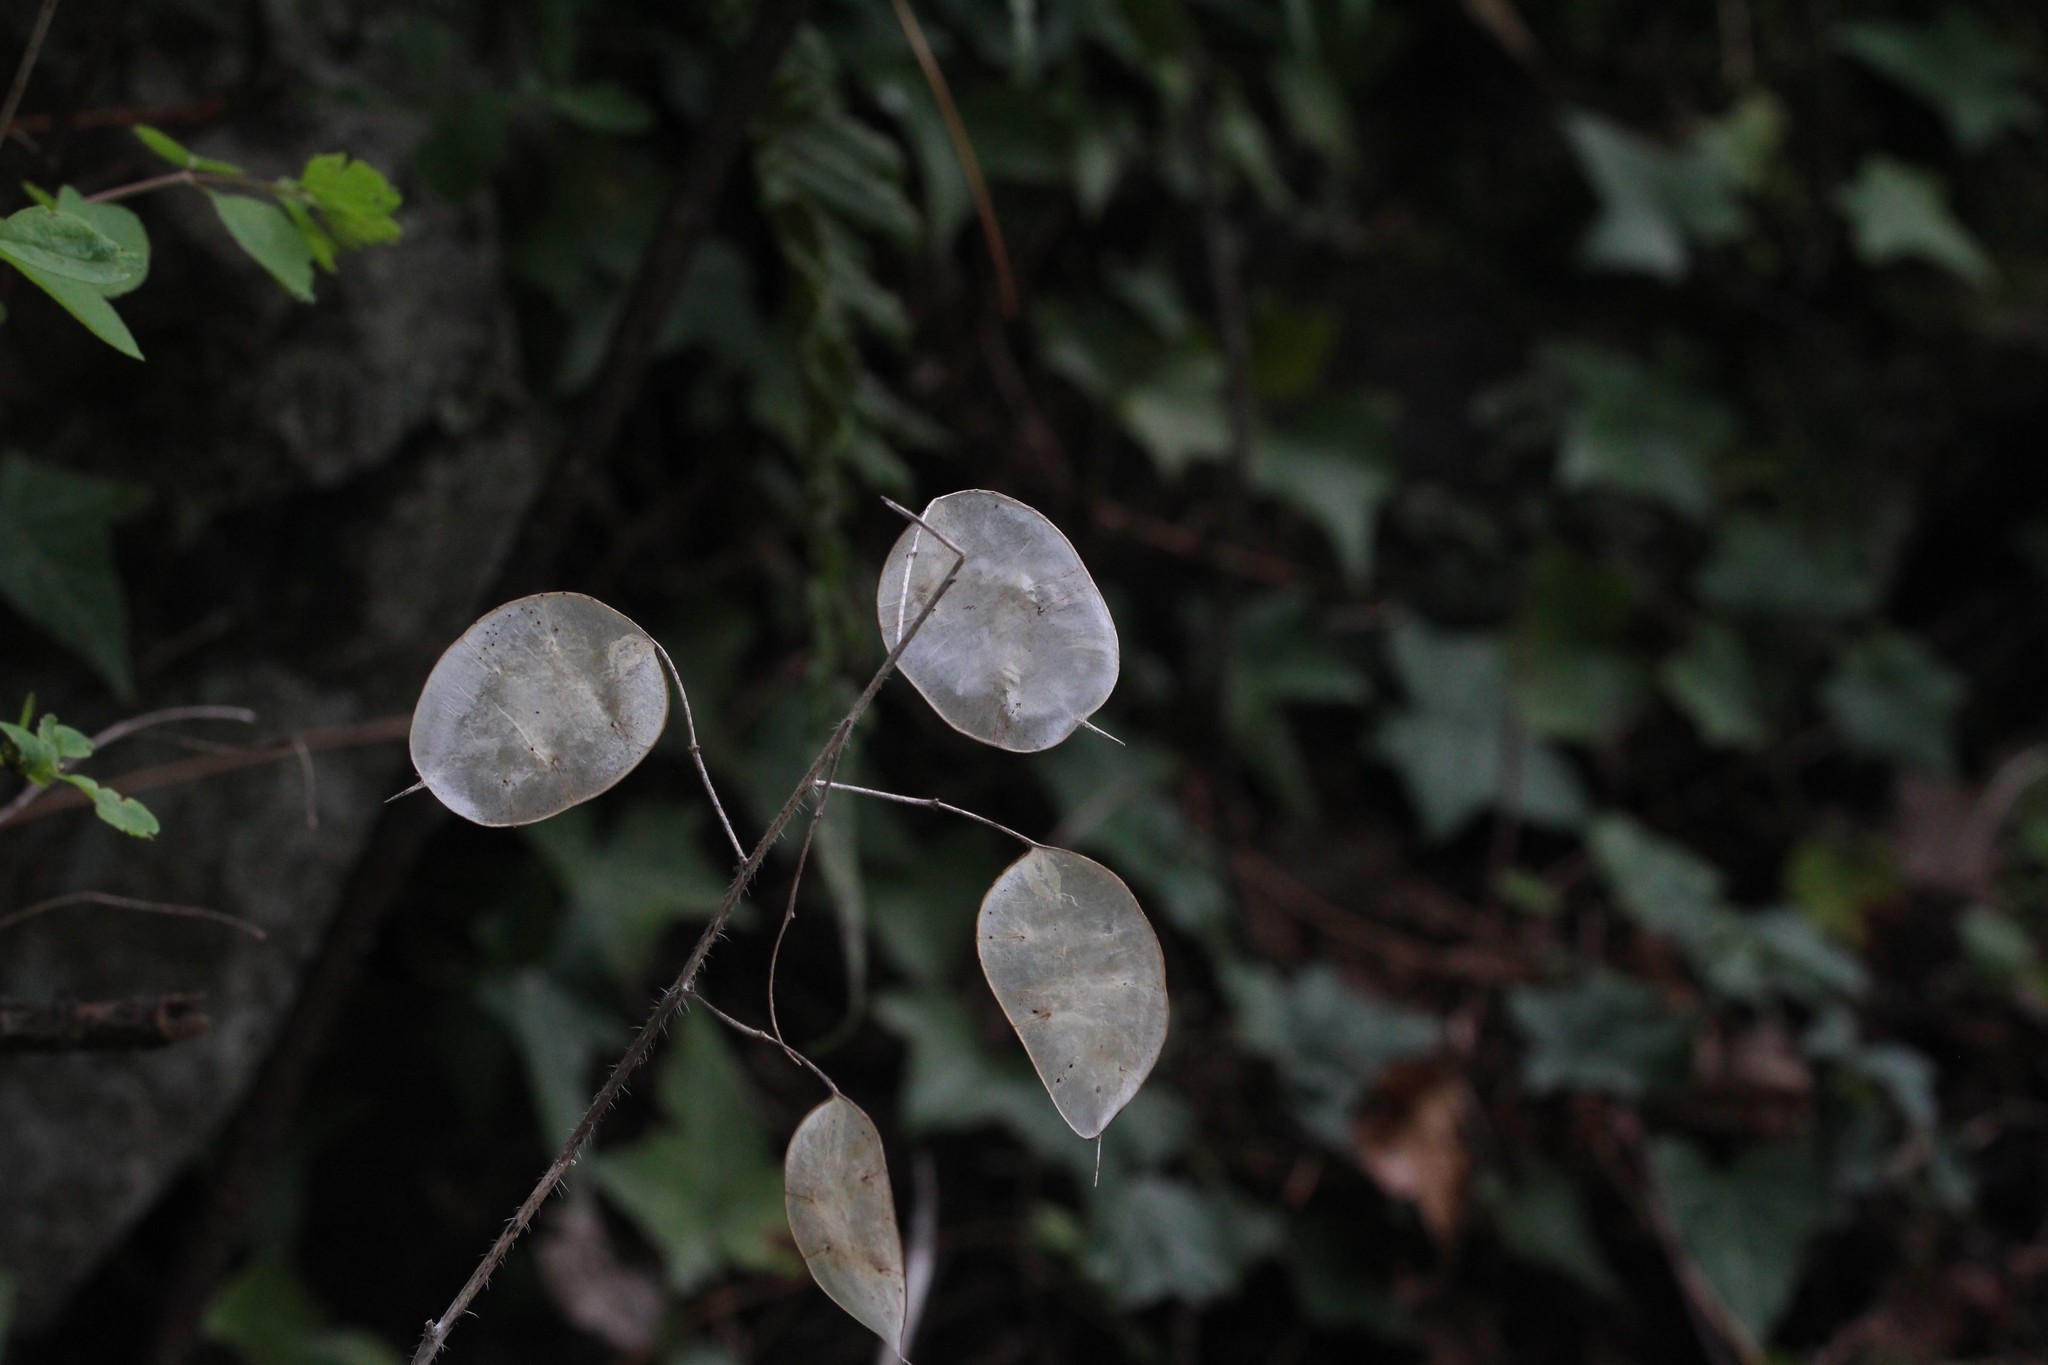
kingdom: Plantae
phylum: Tracheophyta
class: Magnoliopsida
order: Brassicales
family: Brassicaceae
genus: Lunaria
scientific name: Lunaria annua
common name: Honesty
